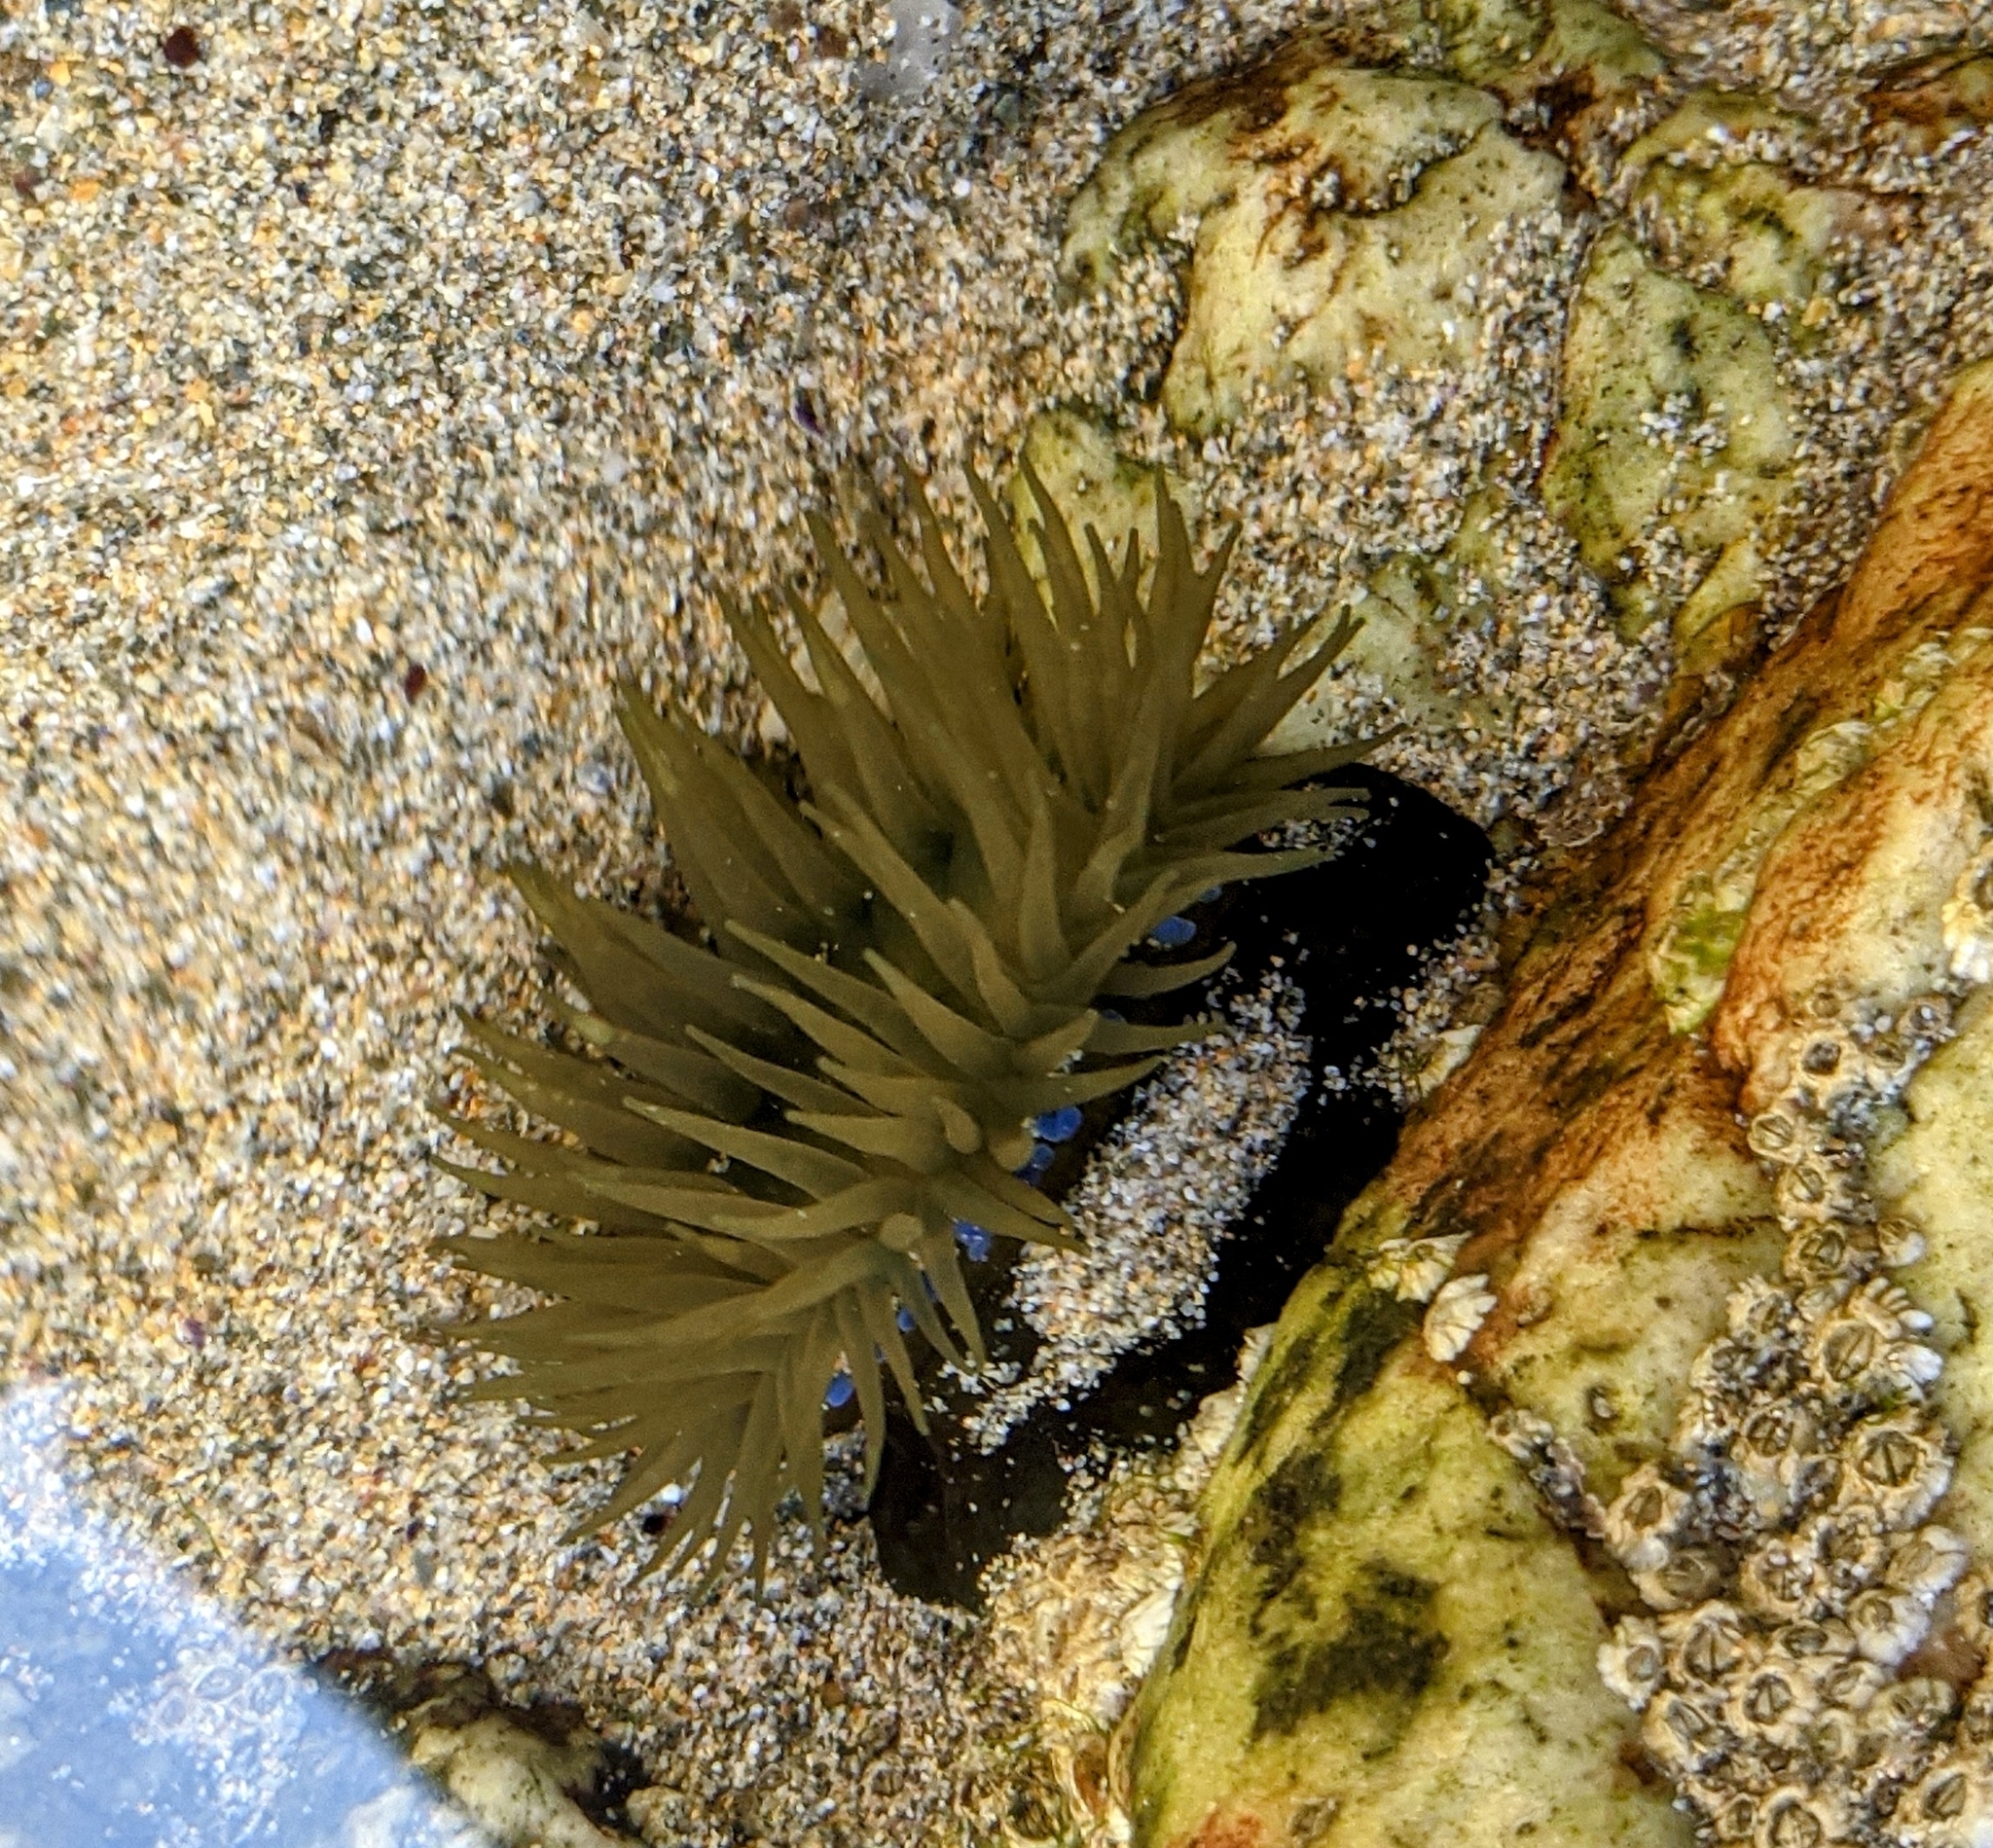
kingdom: Animalia
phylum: Cnidaria
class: Anthozoa
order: Actiniaria
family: Actiniidae
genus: Actinia
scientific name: Actinia equina
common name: Beadlet anemone
